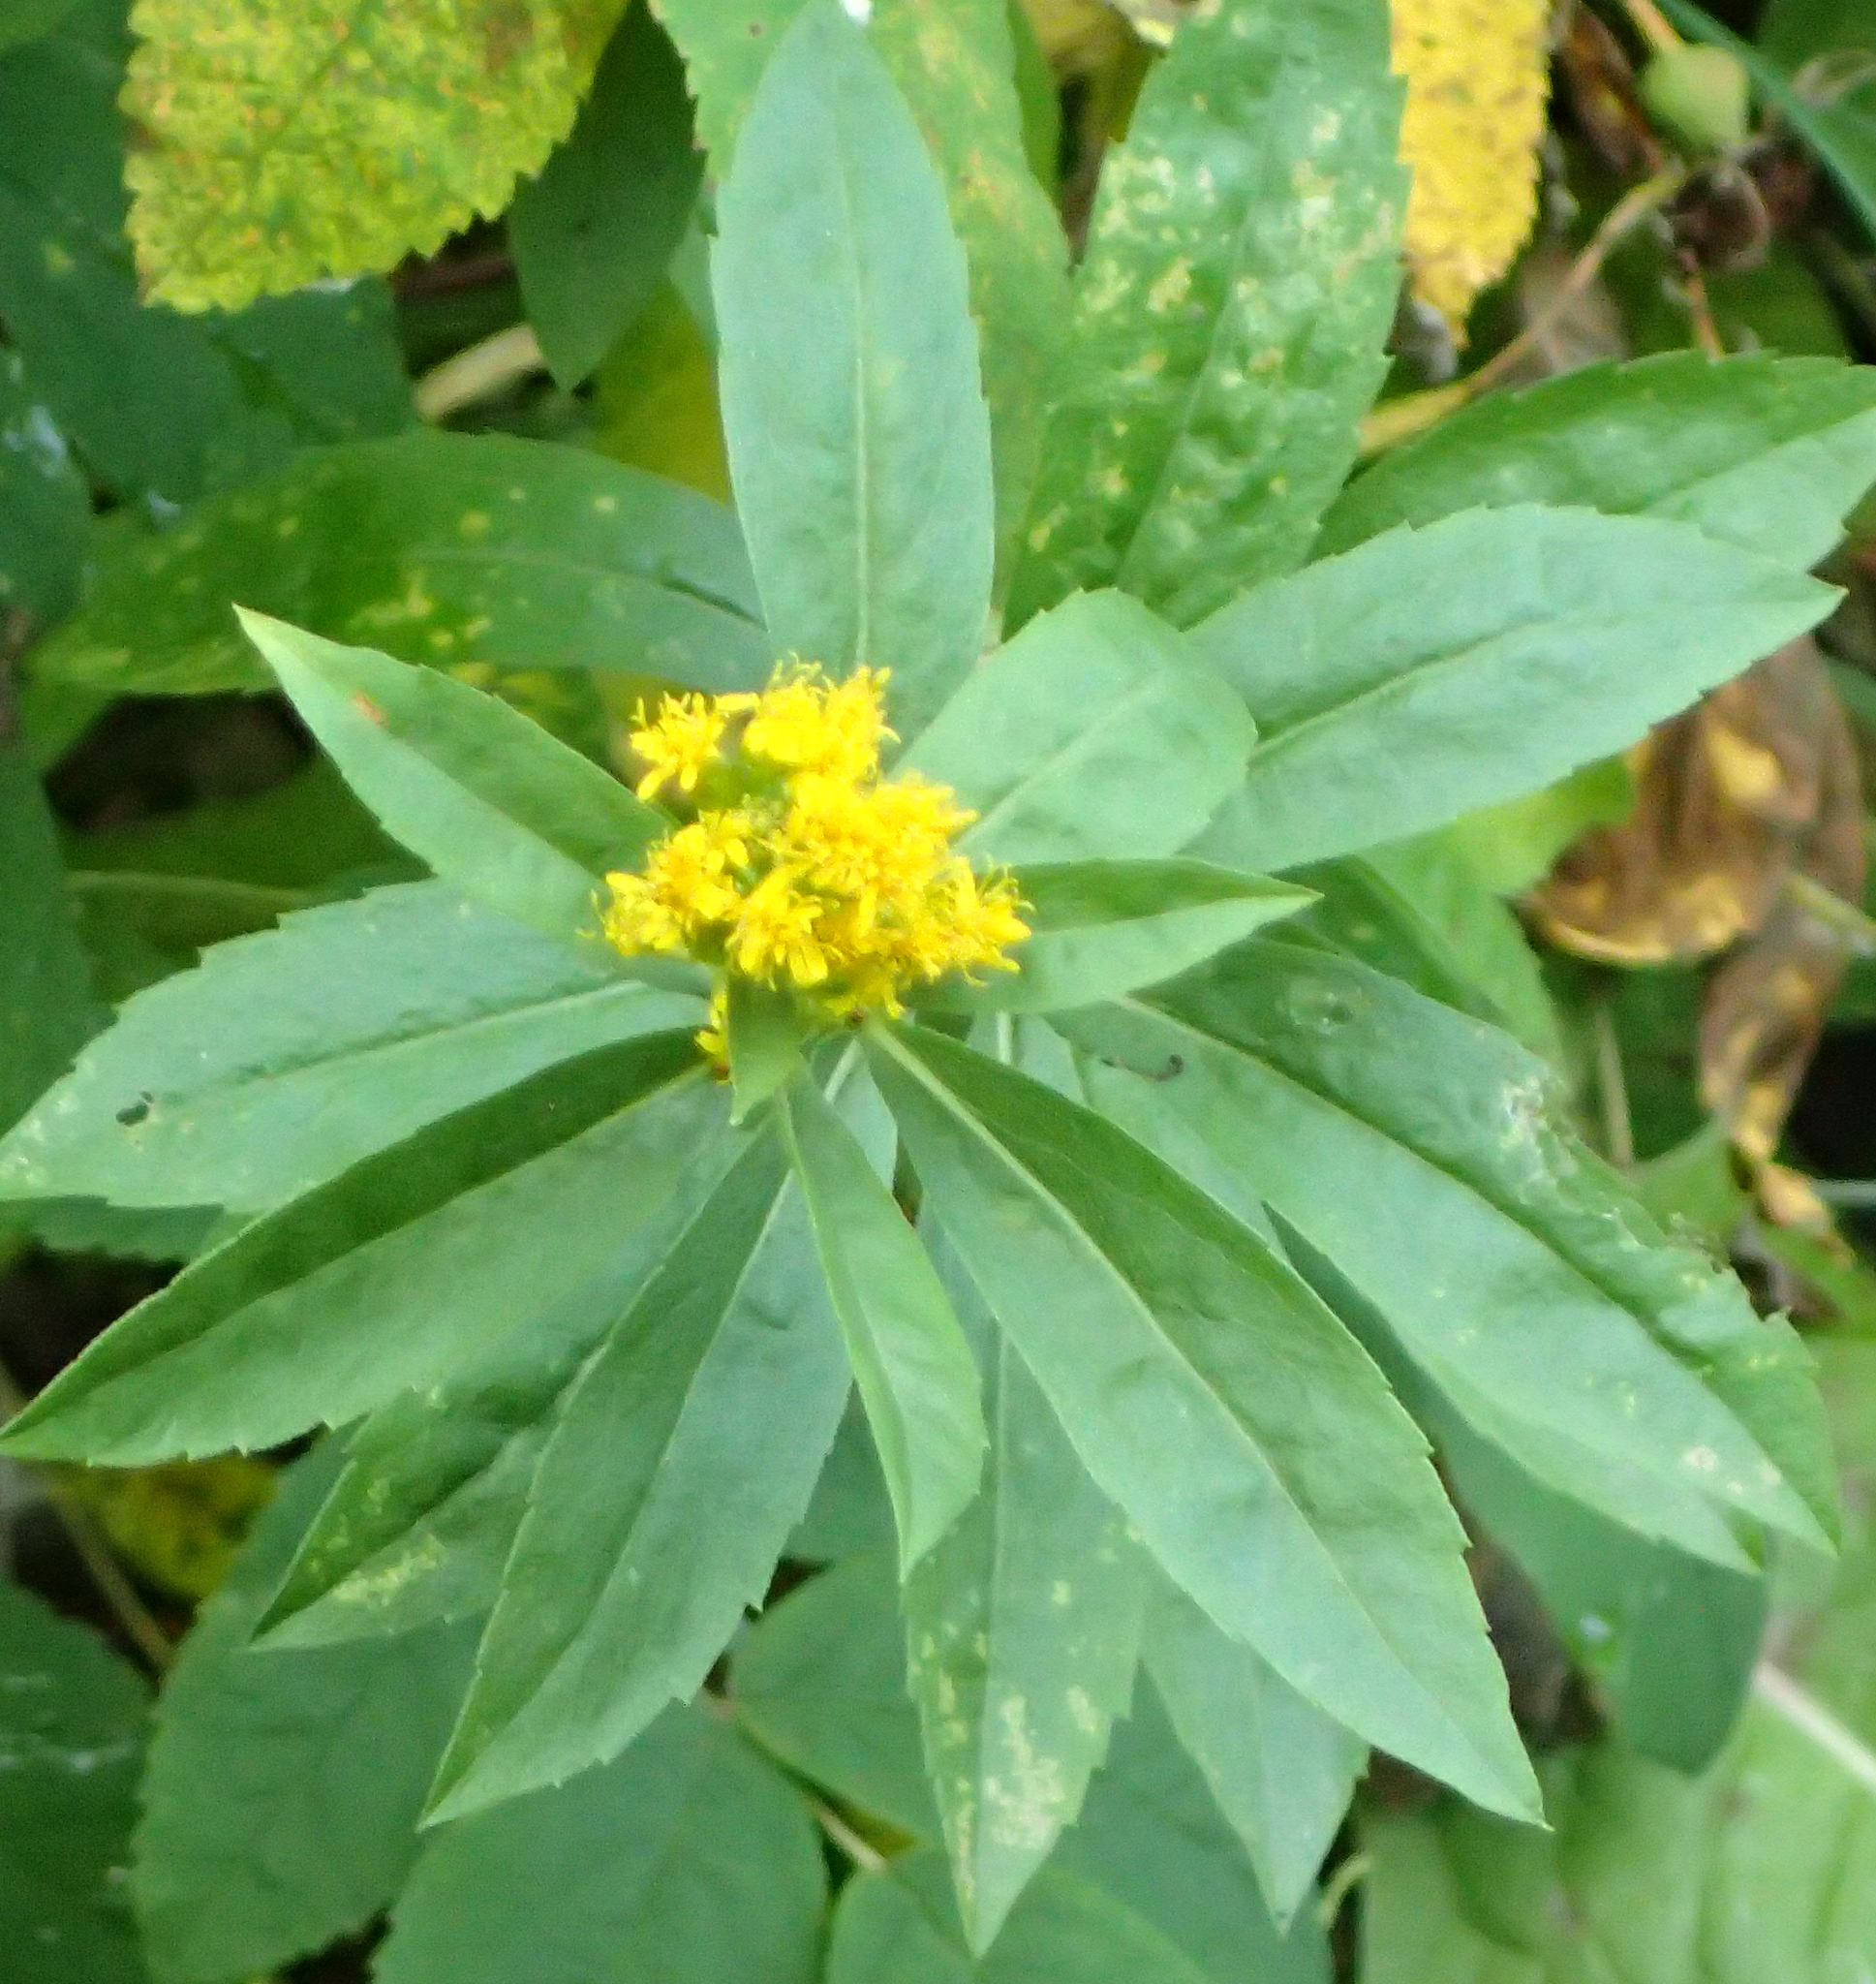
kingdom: Plantae
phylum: Tracheophyta
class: Magnoliopsida
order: Asterales
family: Asteraceae
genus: Solidago
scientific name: Solidago lepida
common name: Western canada goldenrod
